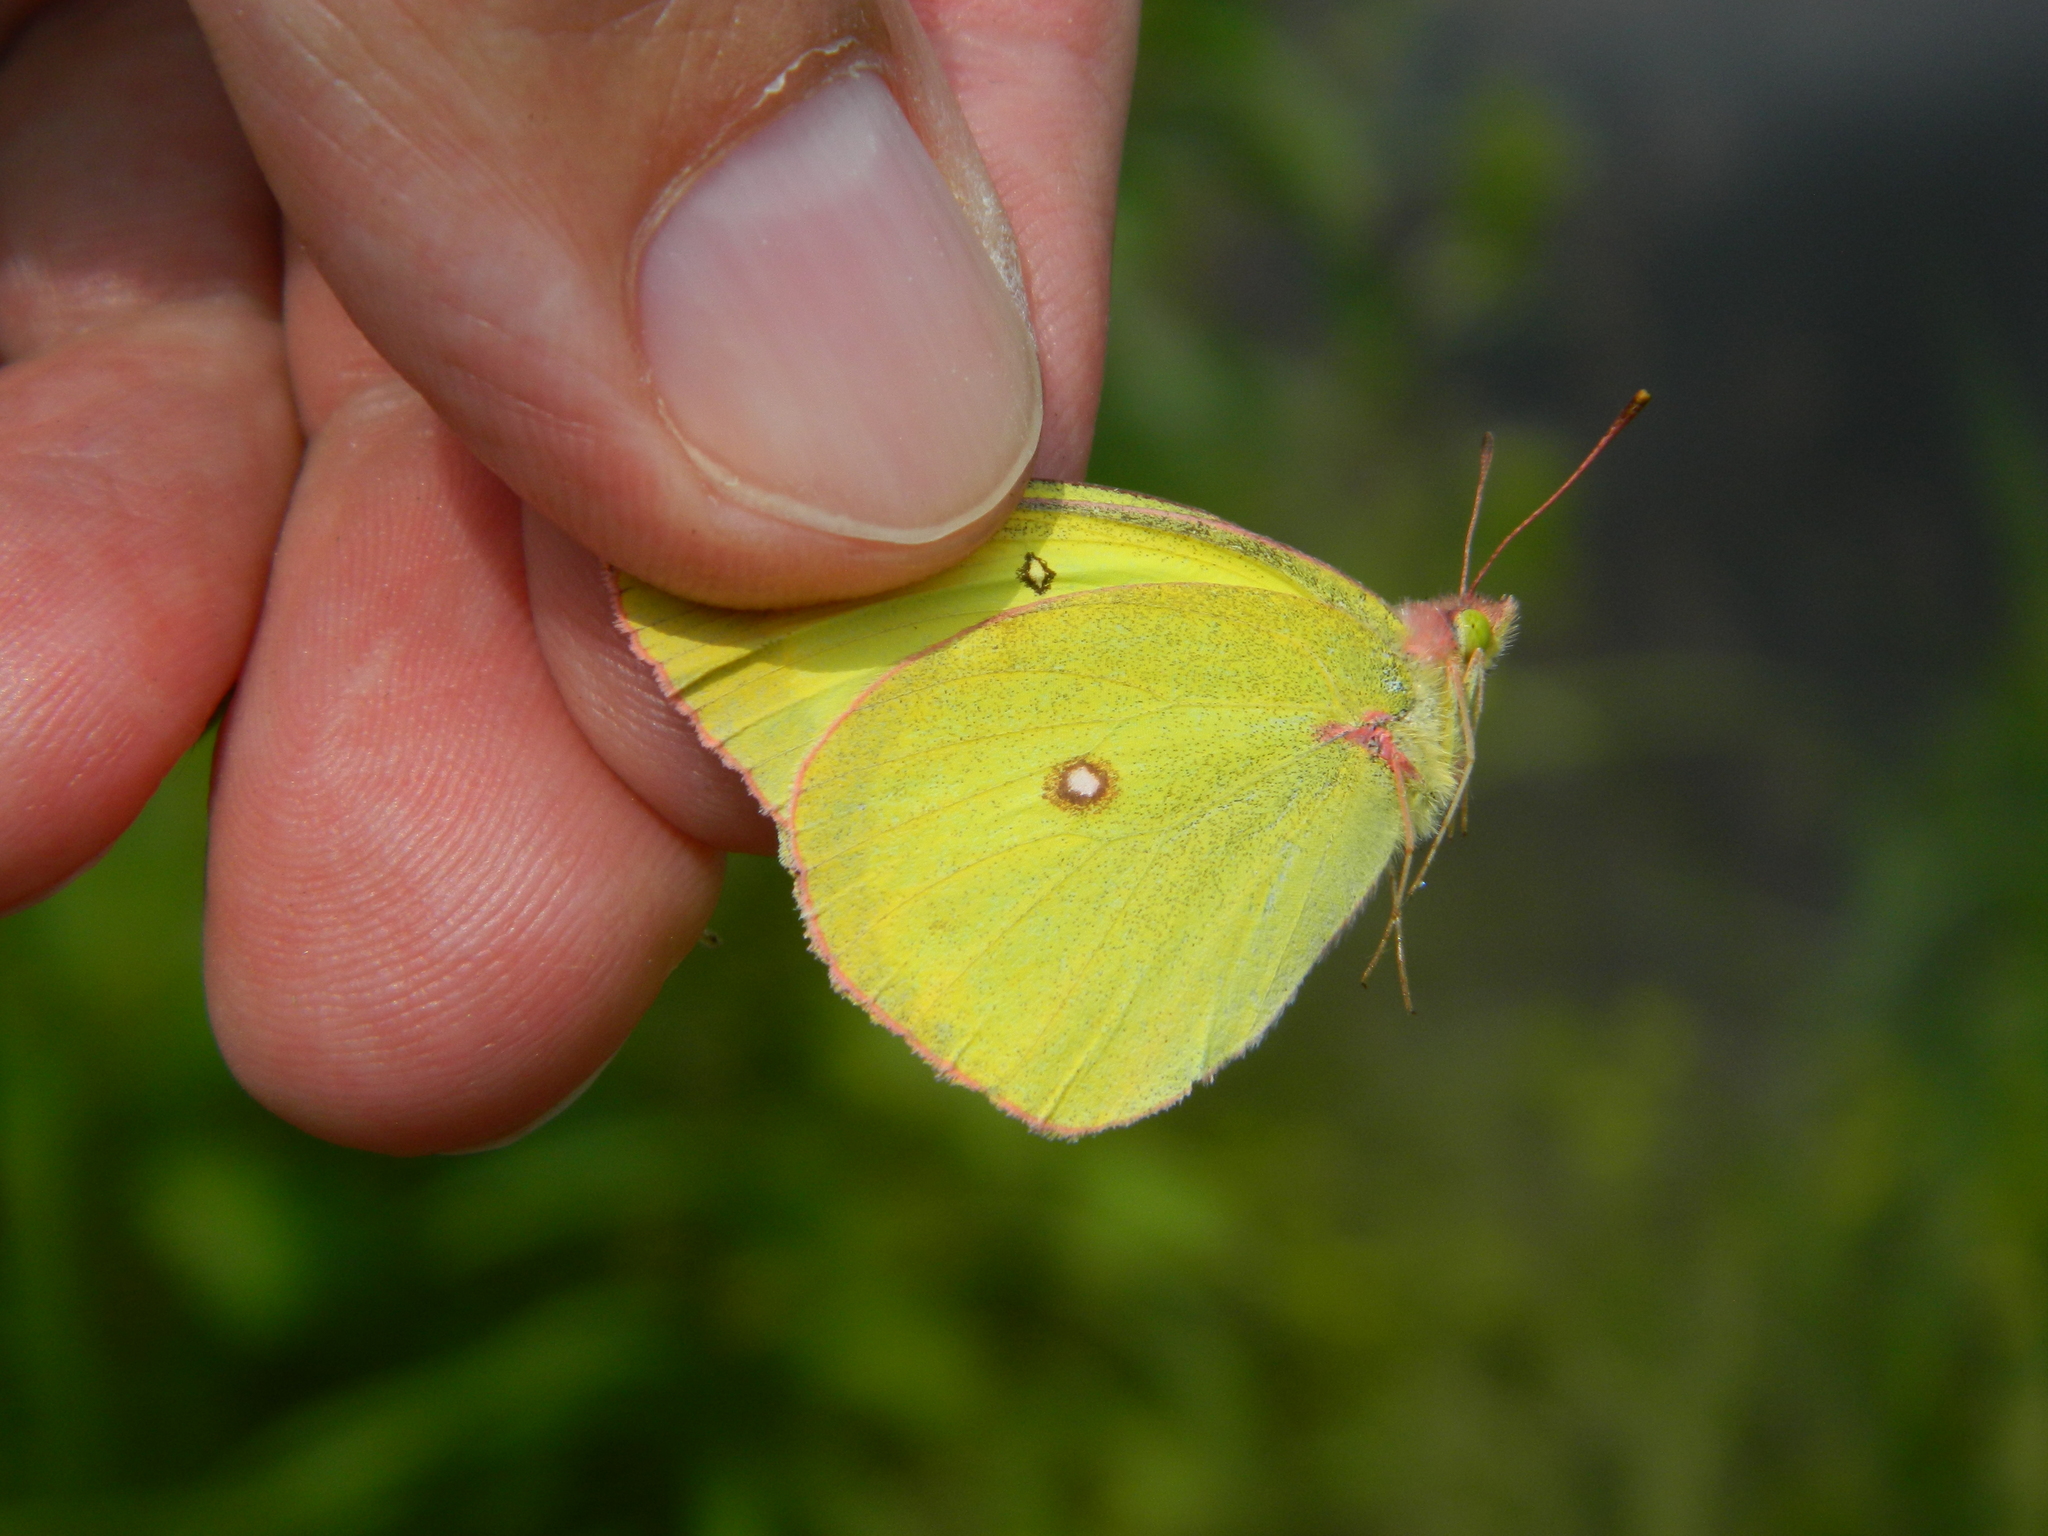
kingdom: Animalia
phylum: Arthropoda
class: Insecta
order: Lepidoptera
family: Pieridae
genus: Colias
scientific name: Colias interior
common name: Pink-edged sulphur
